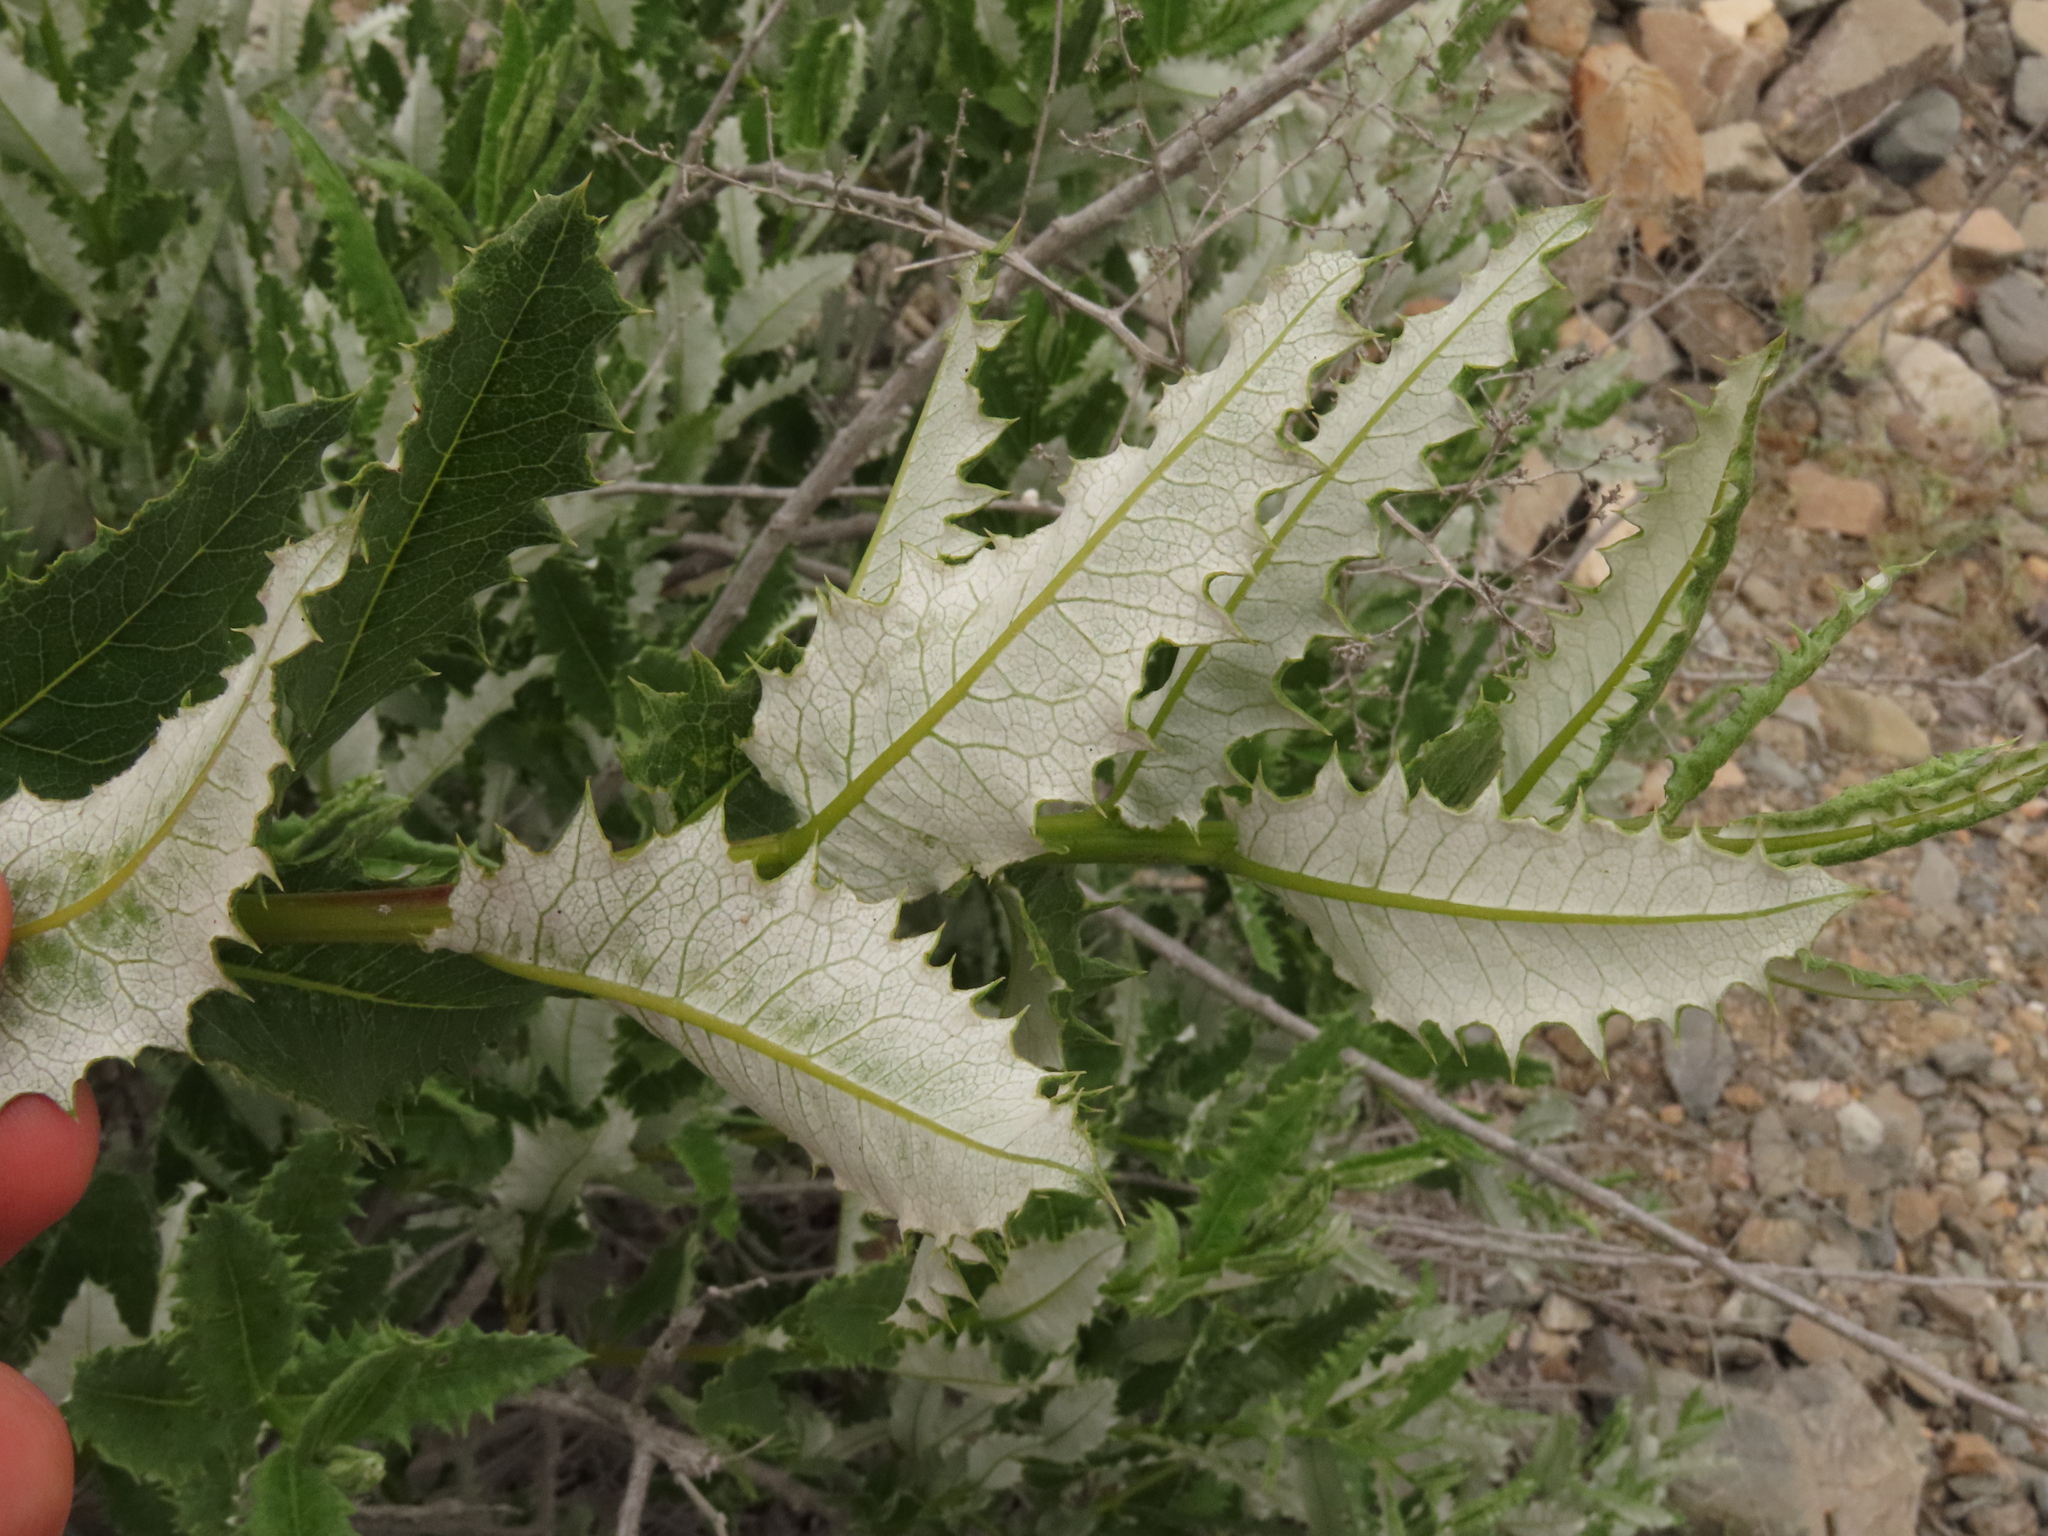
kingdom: Plantae
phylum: Tracheophyta
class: Magnoliopsida
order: Asterales
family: Asteraceae
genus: Spinoliva
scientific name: Spinoliva ilicifolia
